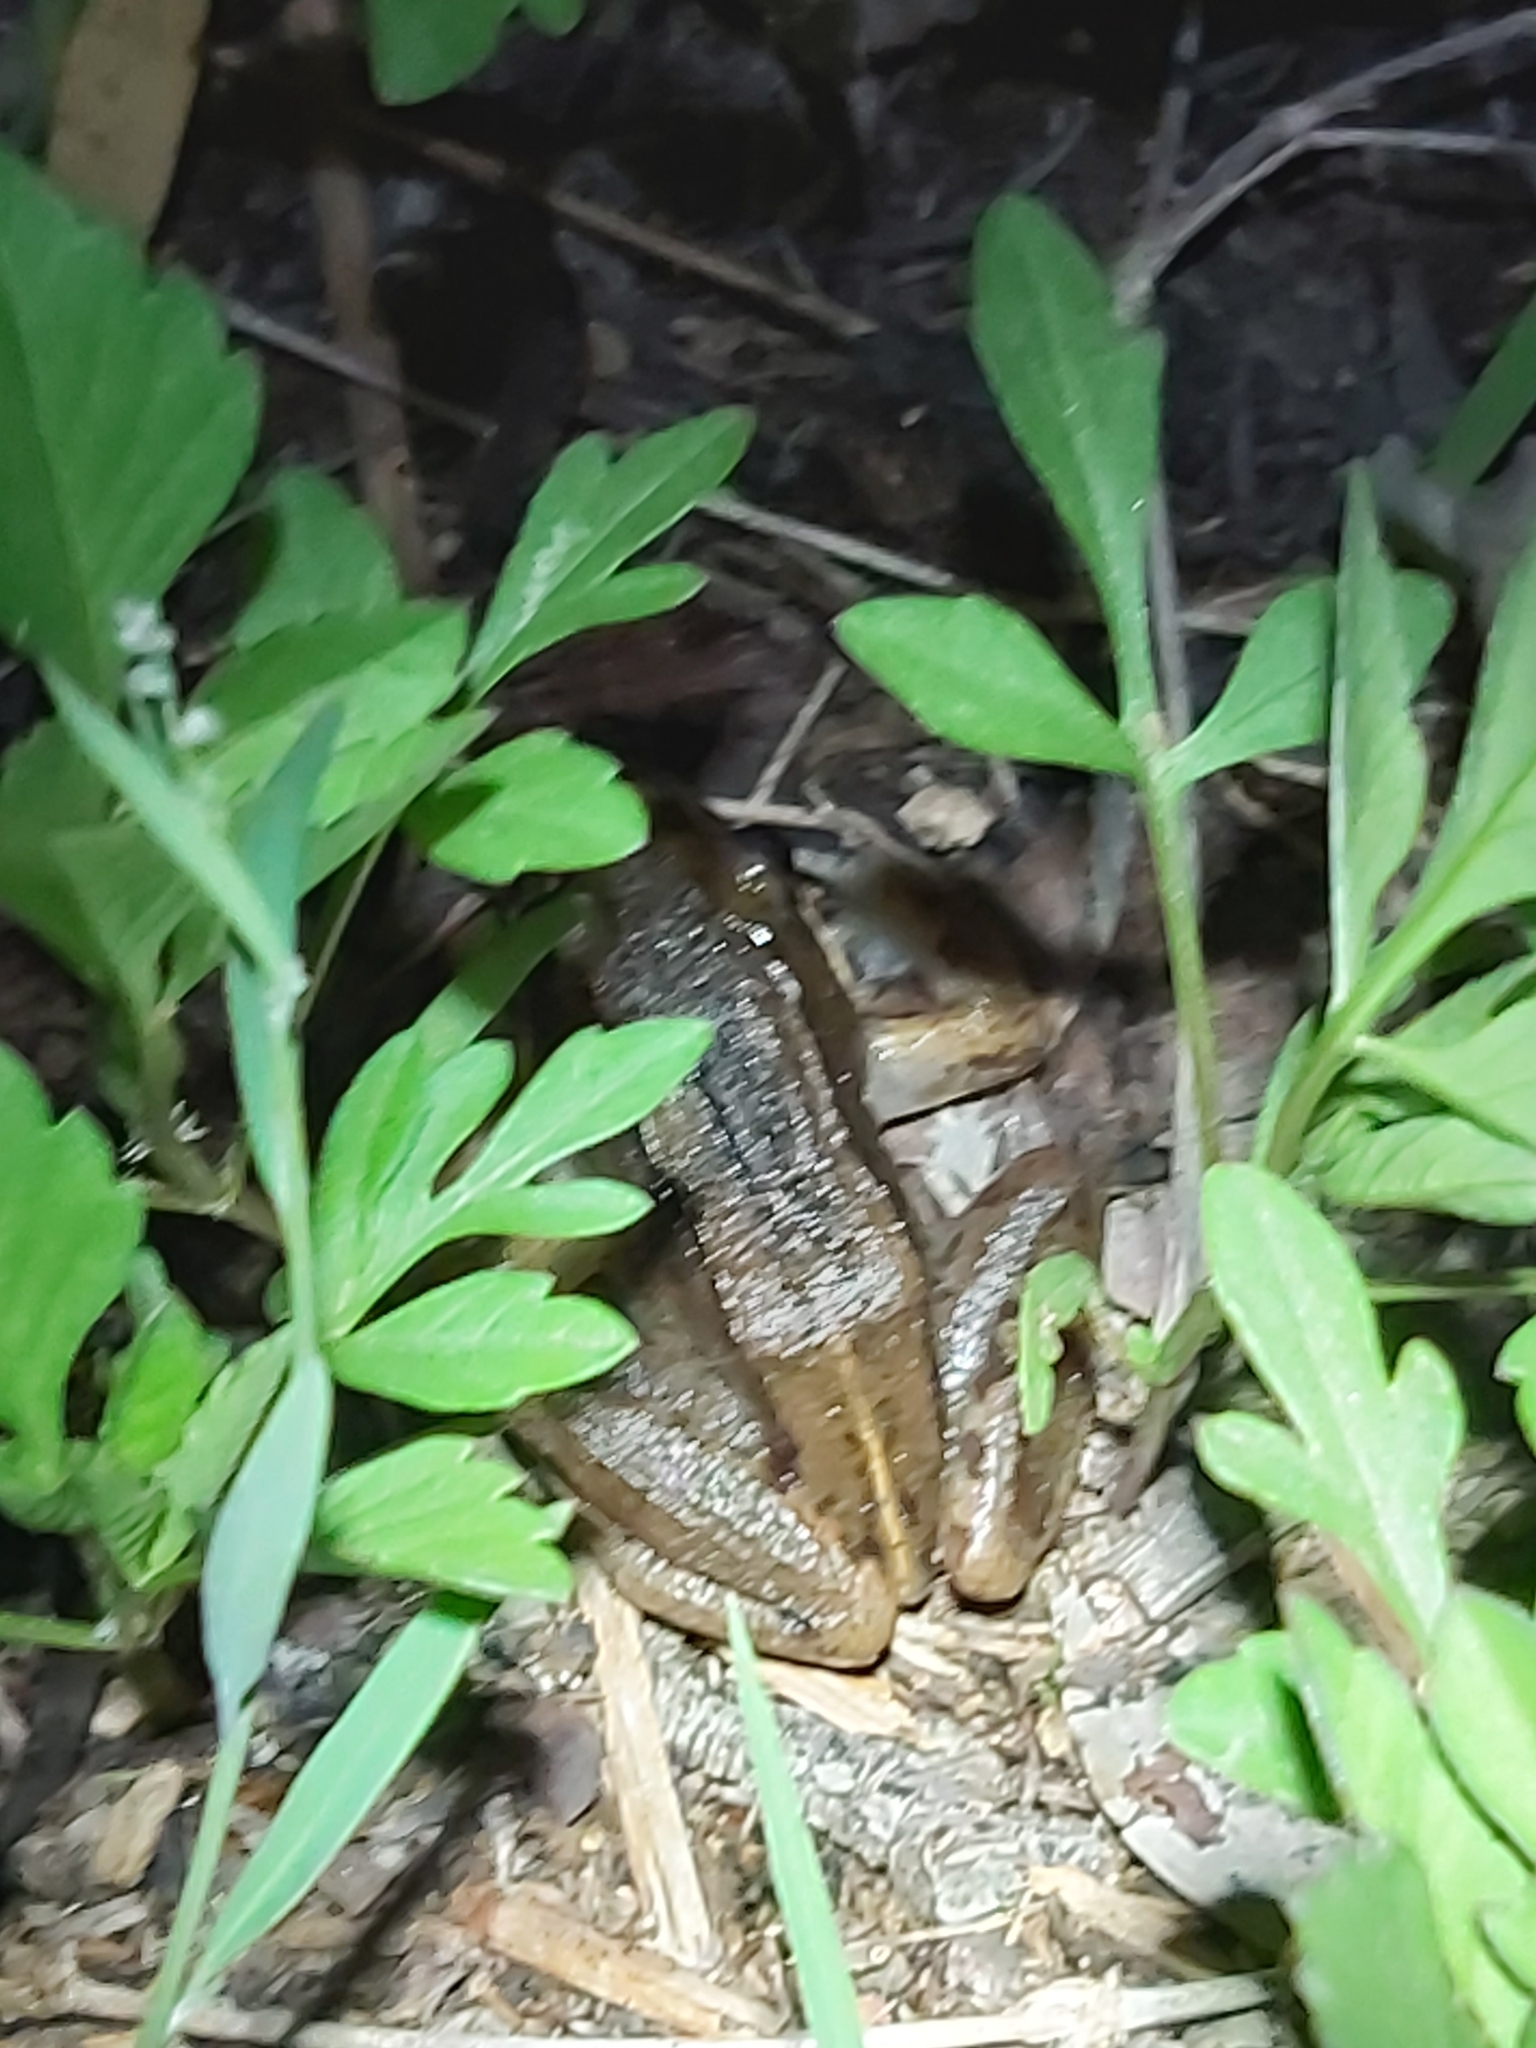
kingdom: Animalia
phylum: Chordata
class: Amphibia
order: Anura
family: Limnodynastidae
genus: Limnodynastes
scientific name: Limnodynastes peronii
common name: Brown frog
